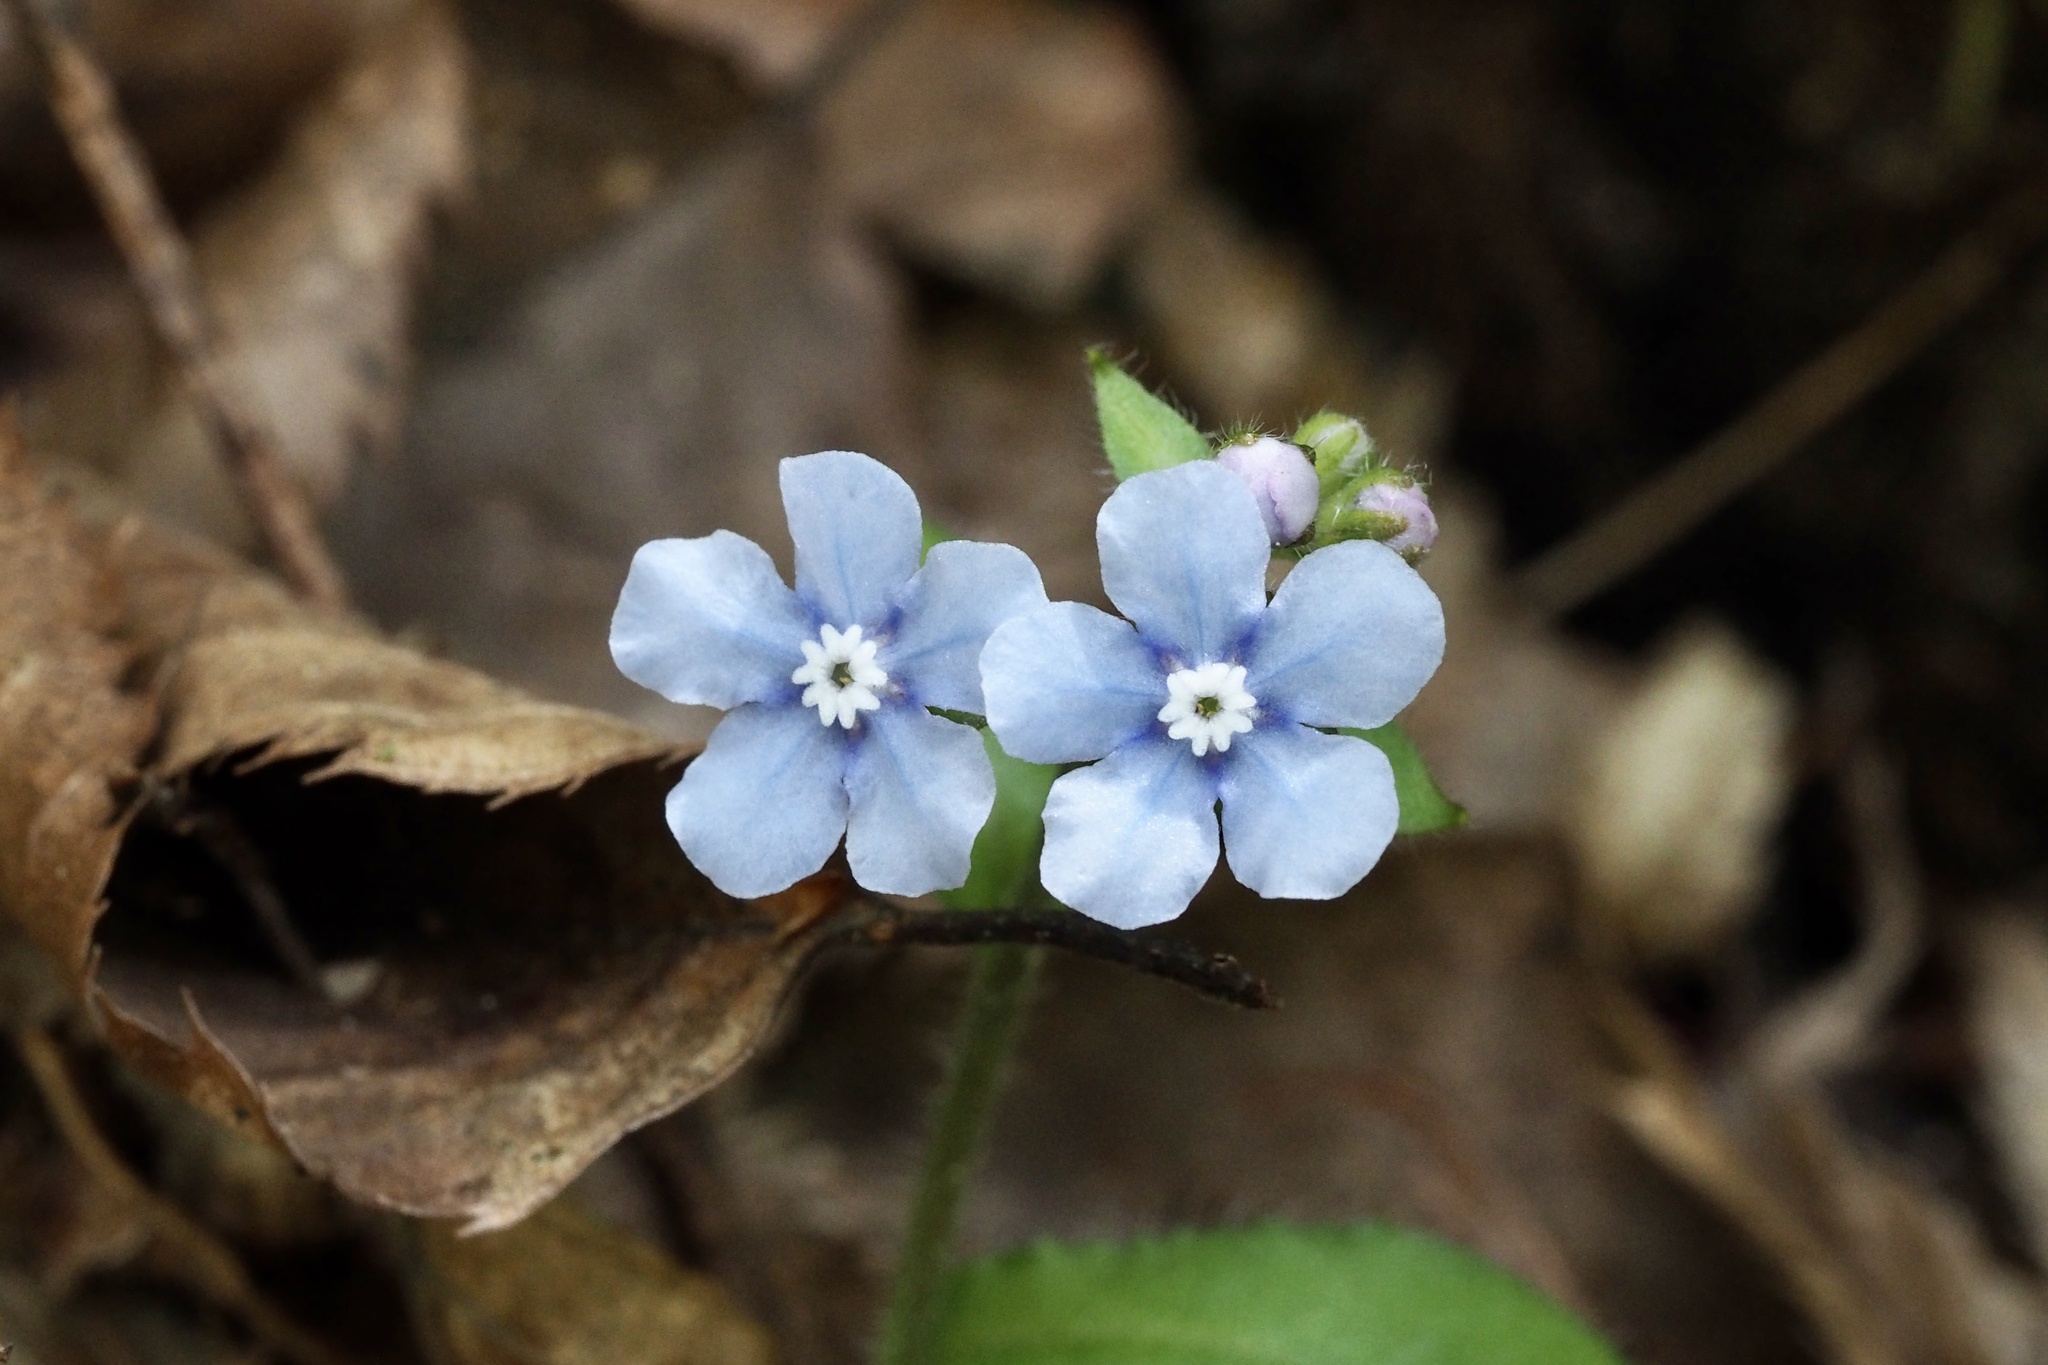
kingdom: Plantae
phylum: Tracheophyta
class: Magnoliopsida
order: Boraginales
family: Boraginaceae
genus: Nihon
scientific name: Nihon japonicum
